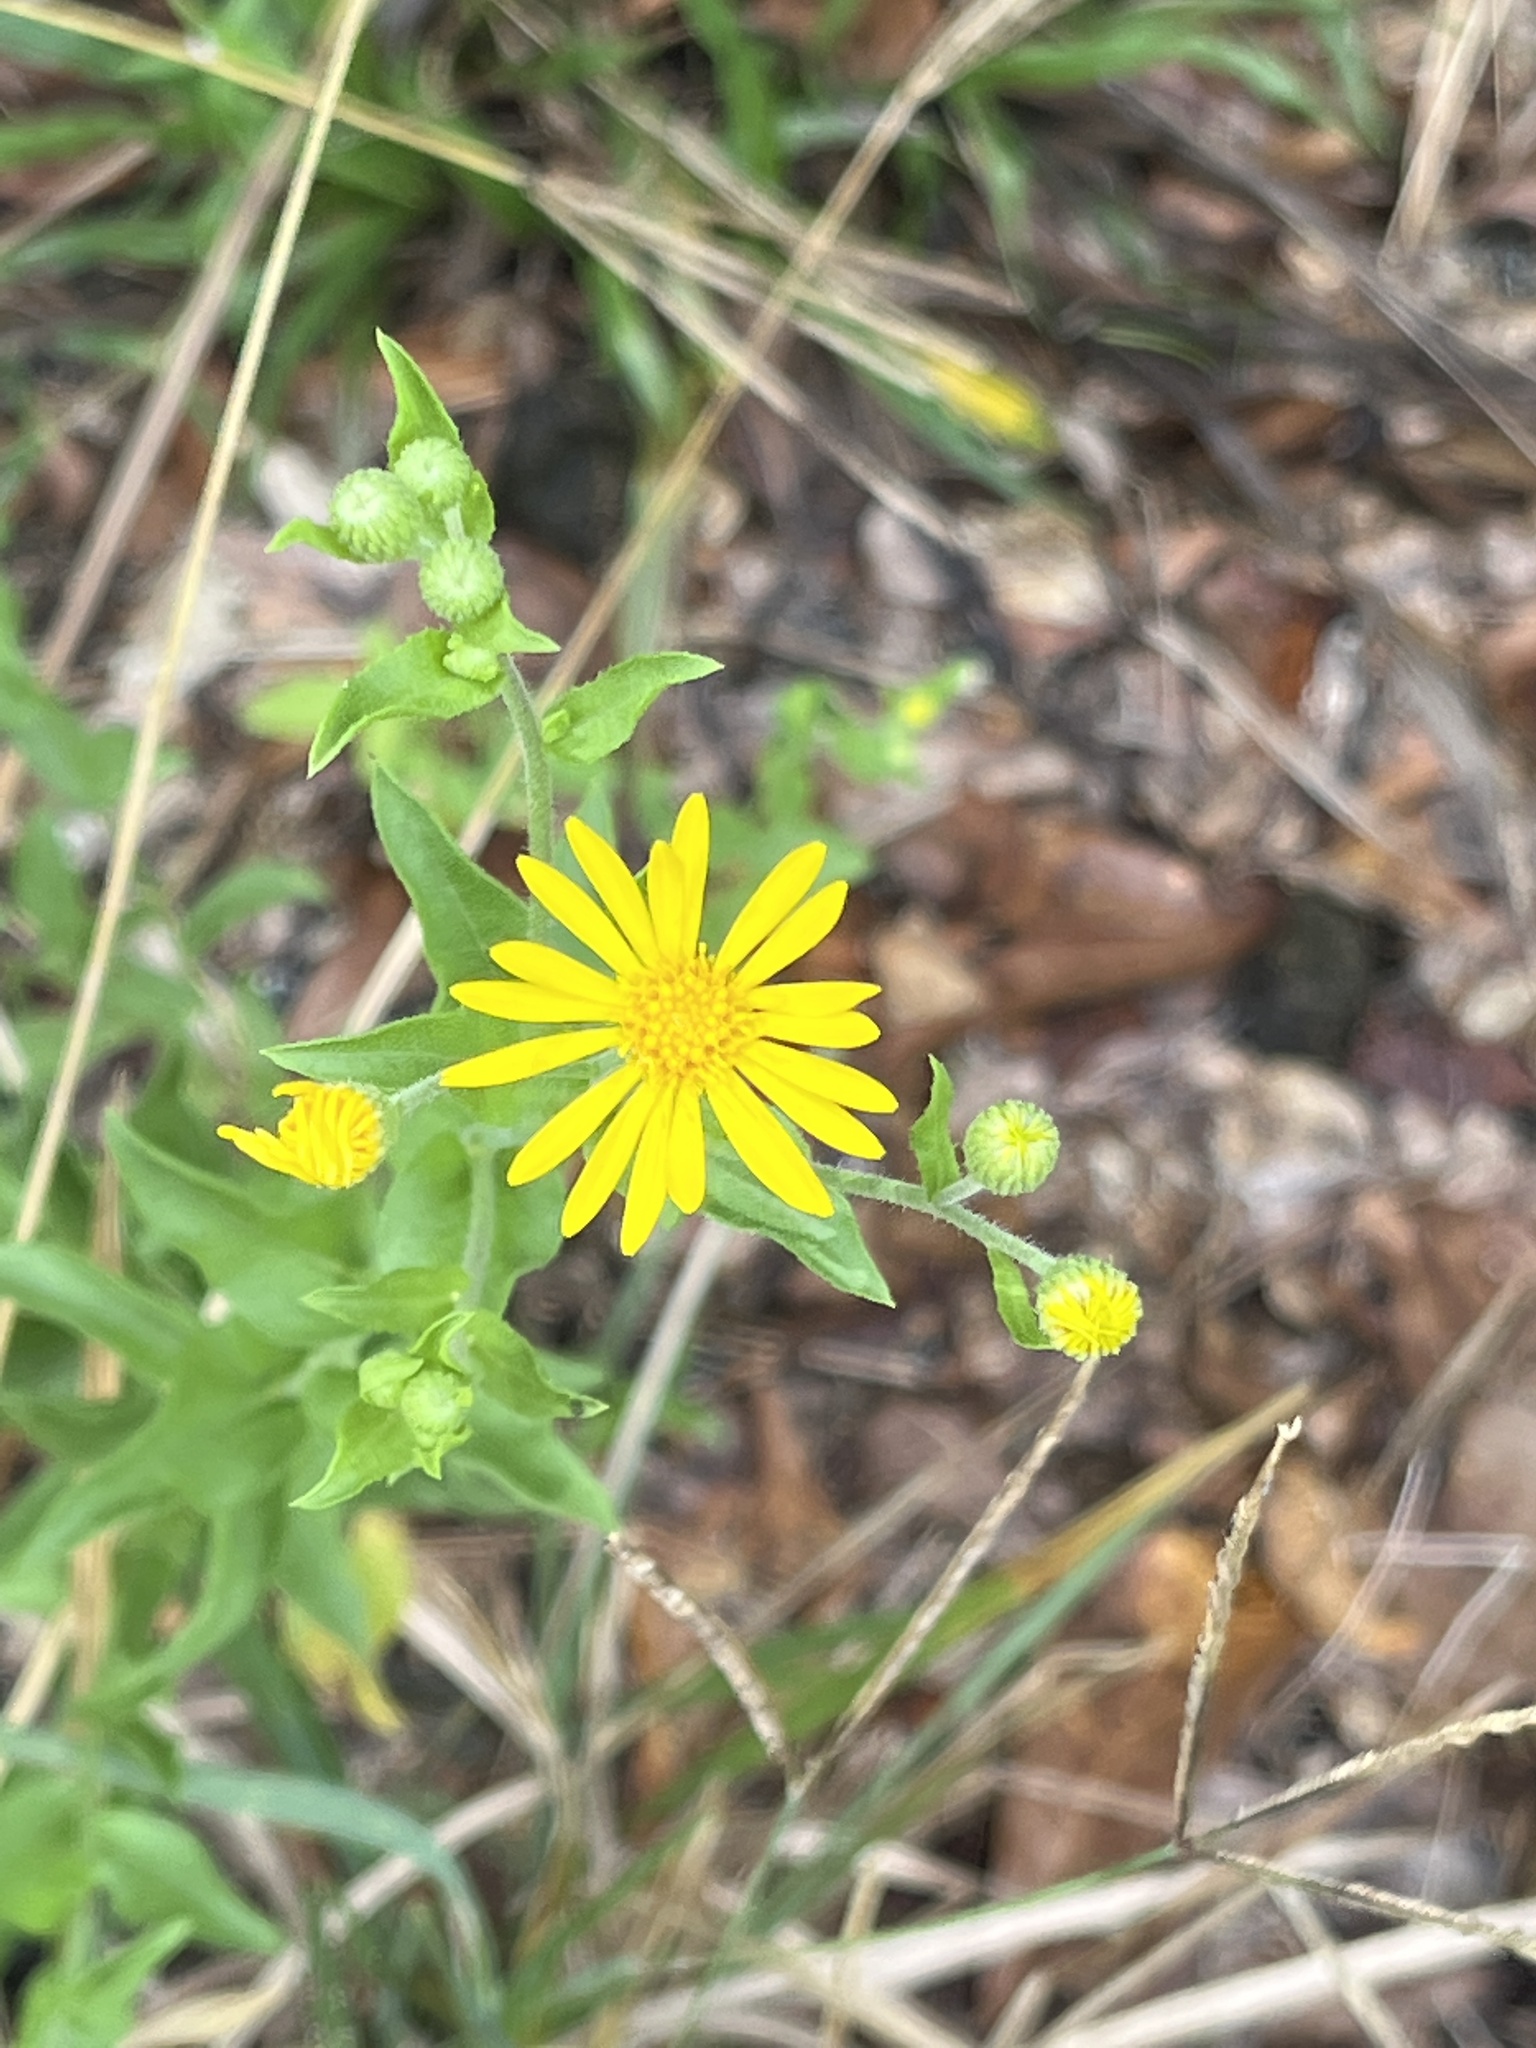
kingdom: Plantae
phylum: Tracheophyta
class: Magnoliopsida
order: Asterales
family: Asteraceae
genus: Heterotheca
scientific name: Heterotheca subaxillaris
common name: Camphorweed
